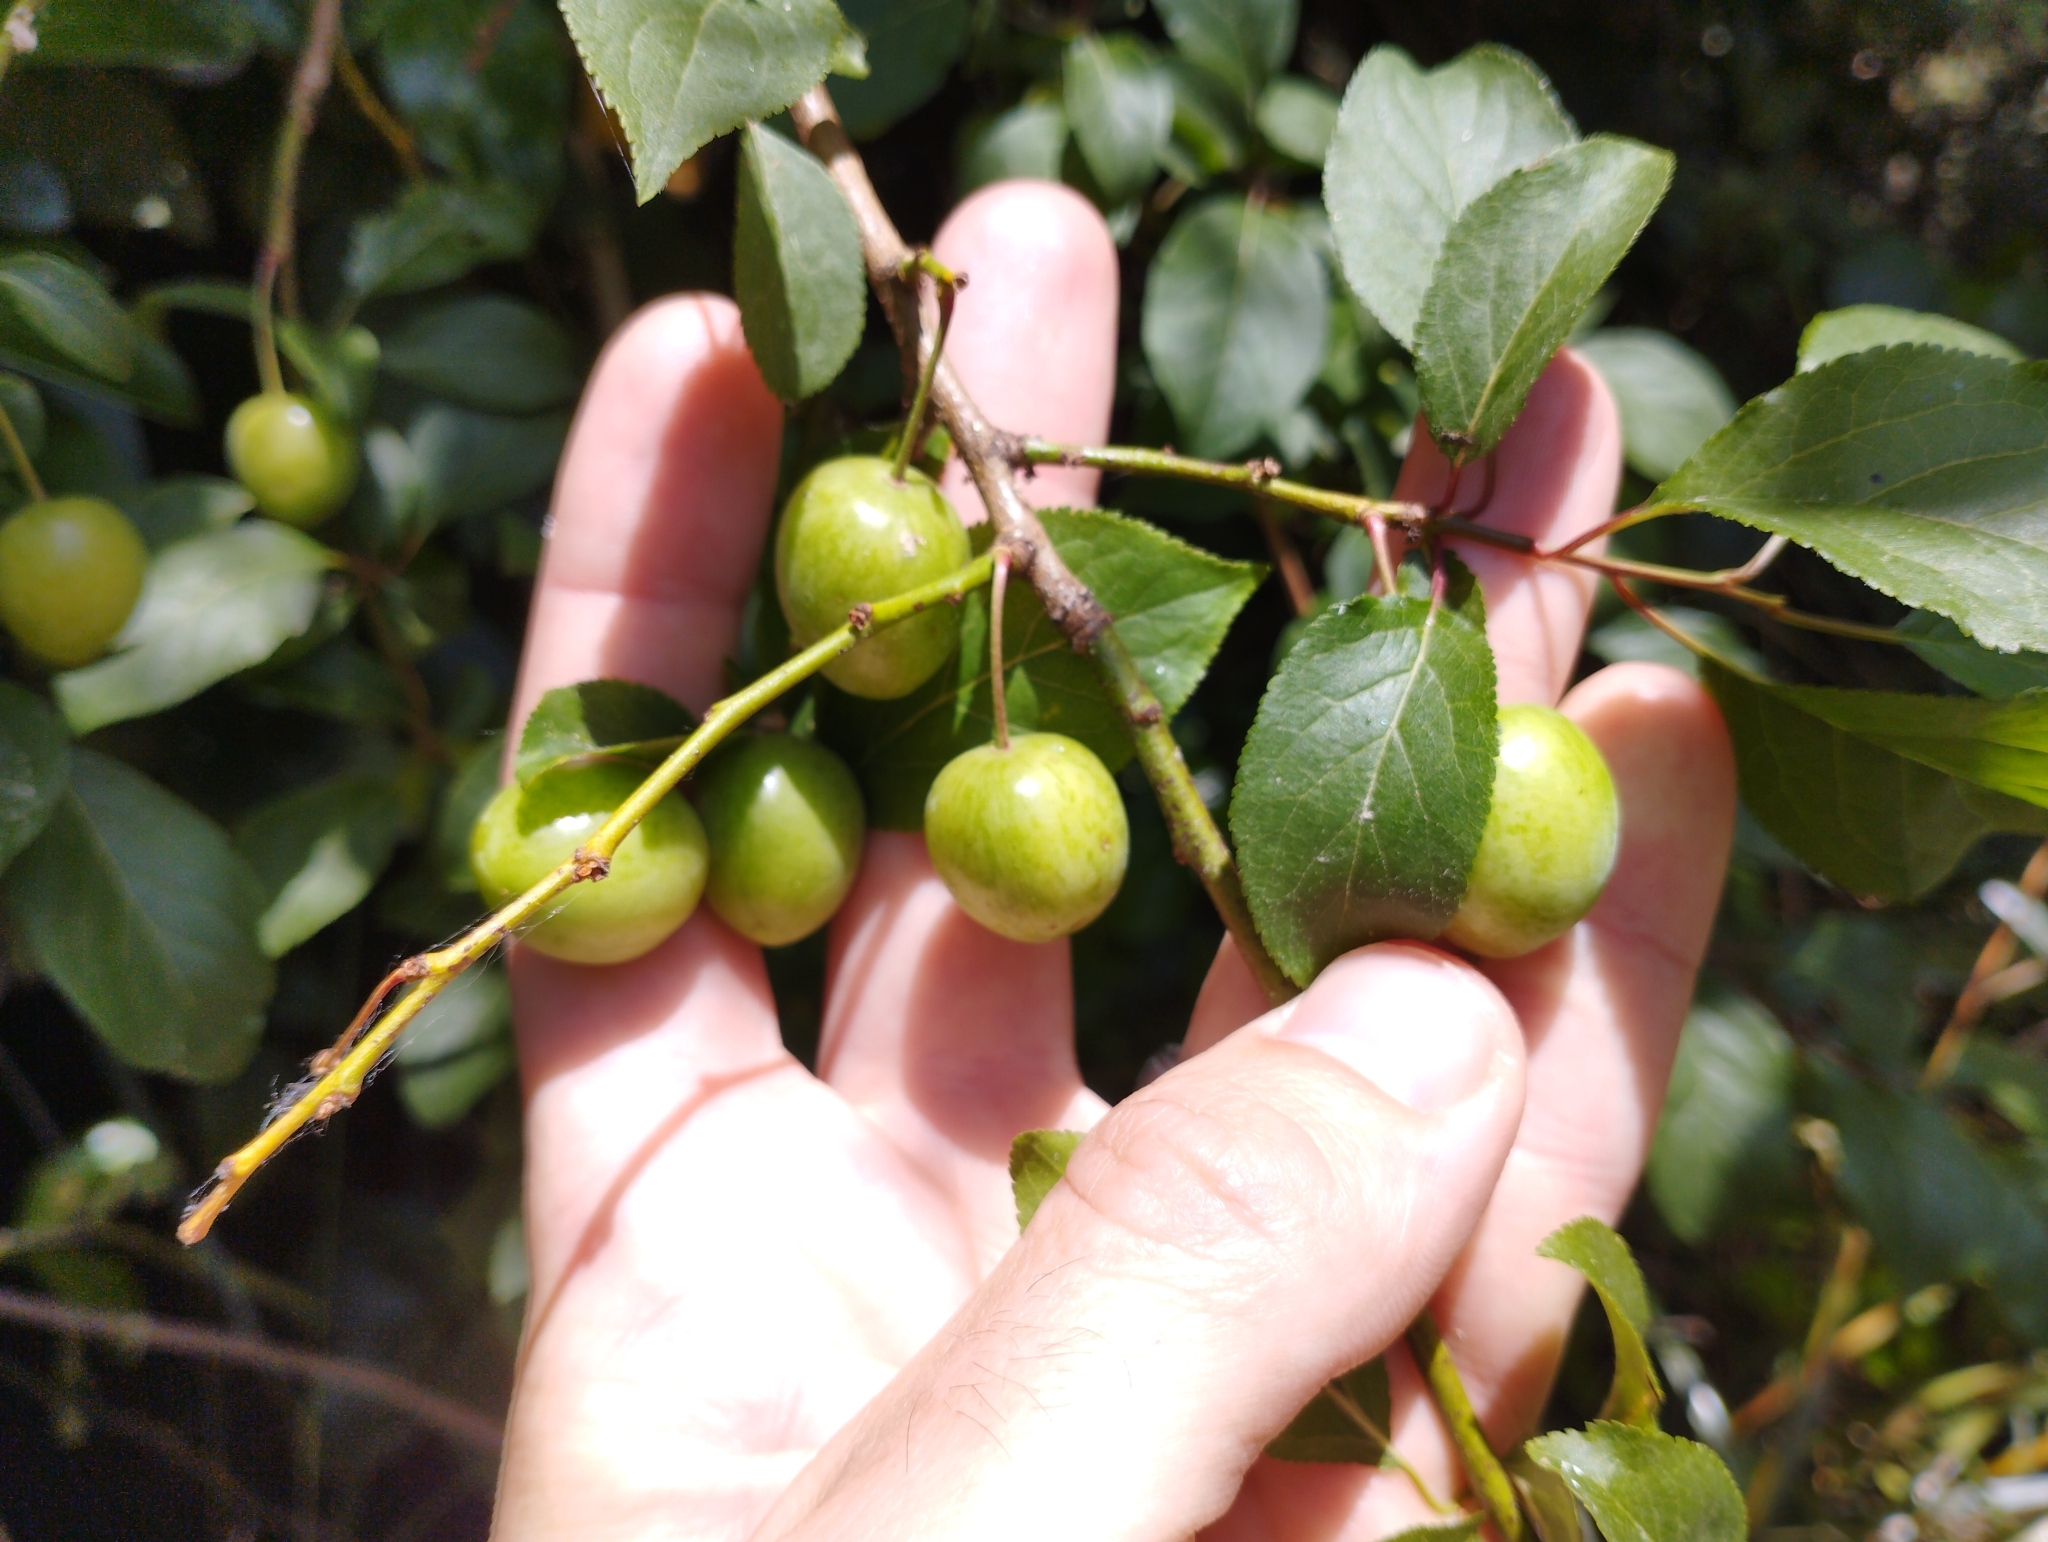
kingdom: Plantae
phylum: Tracheophyta
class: Magnoliopsida
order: Rosales
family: Rosaceae
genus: Prunus
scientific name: Prunus cerasifera
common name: Cherry plum
